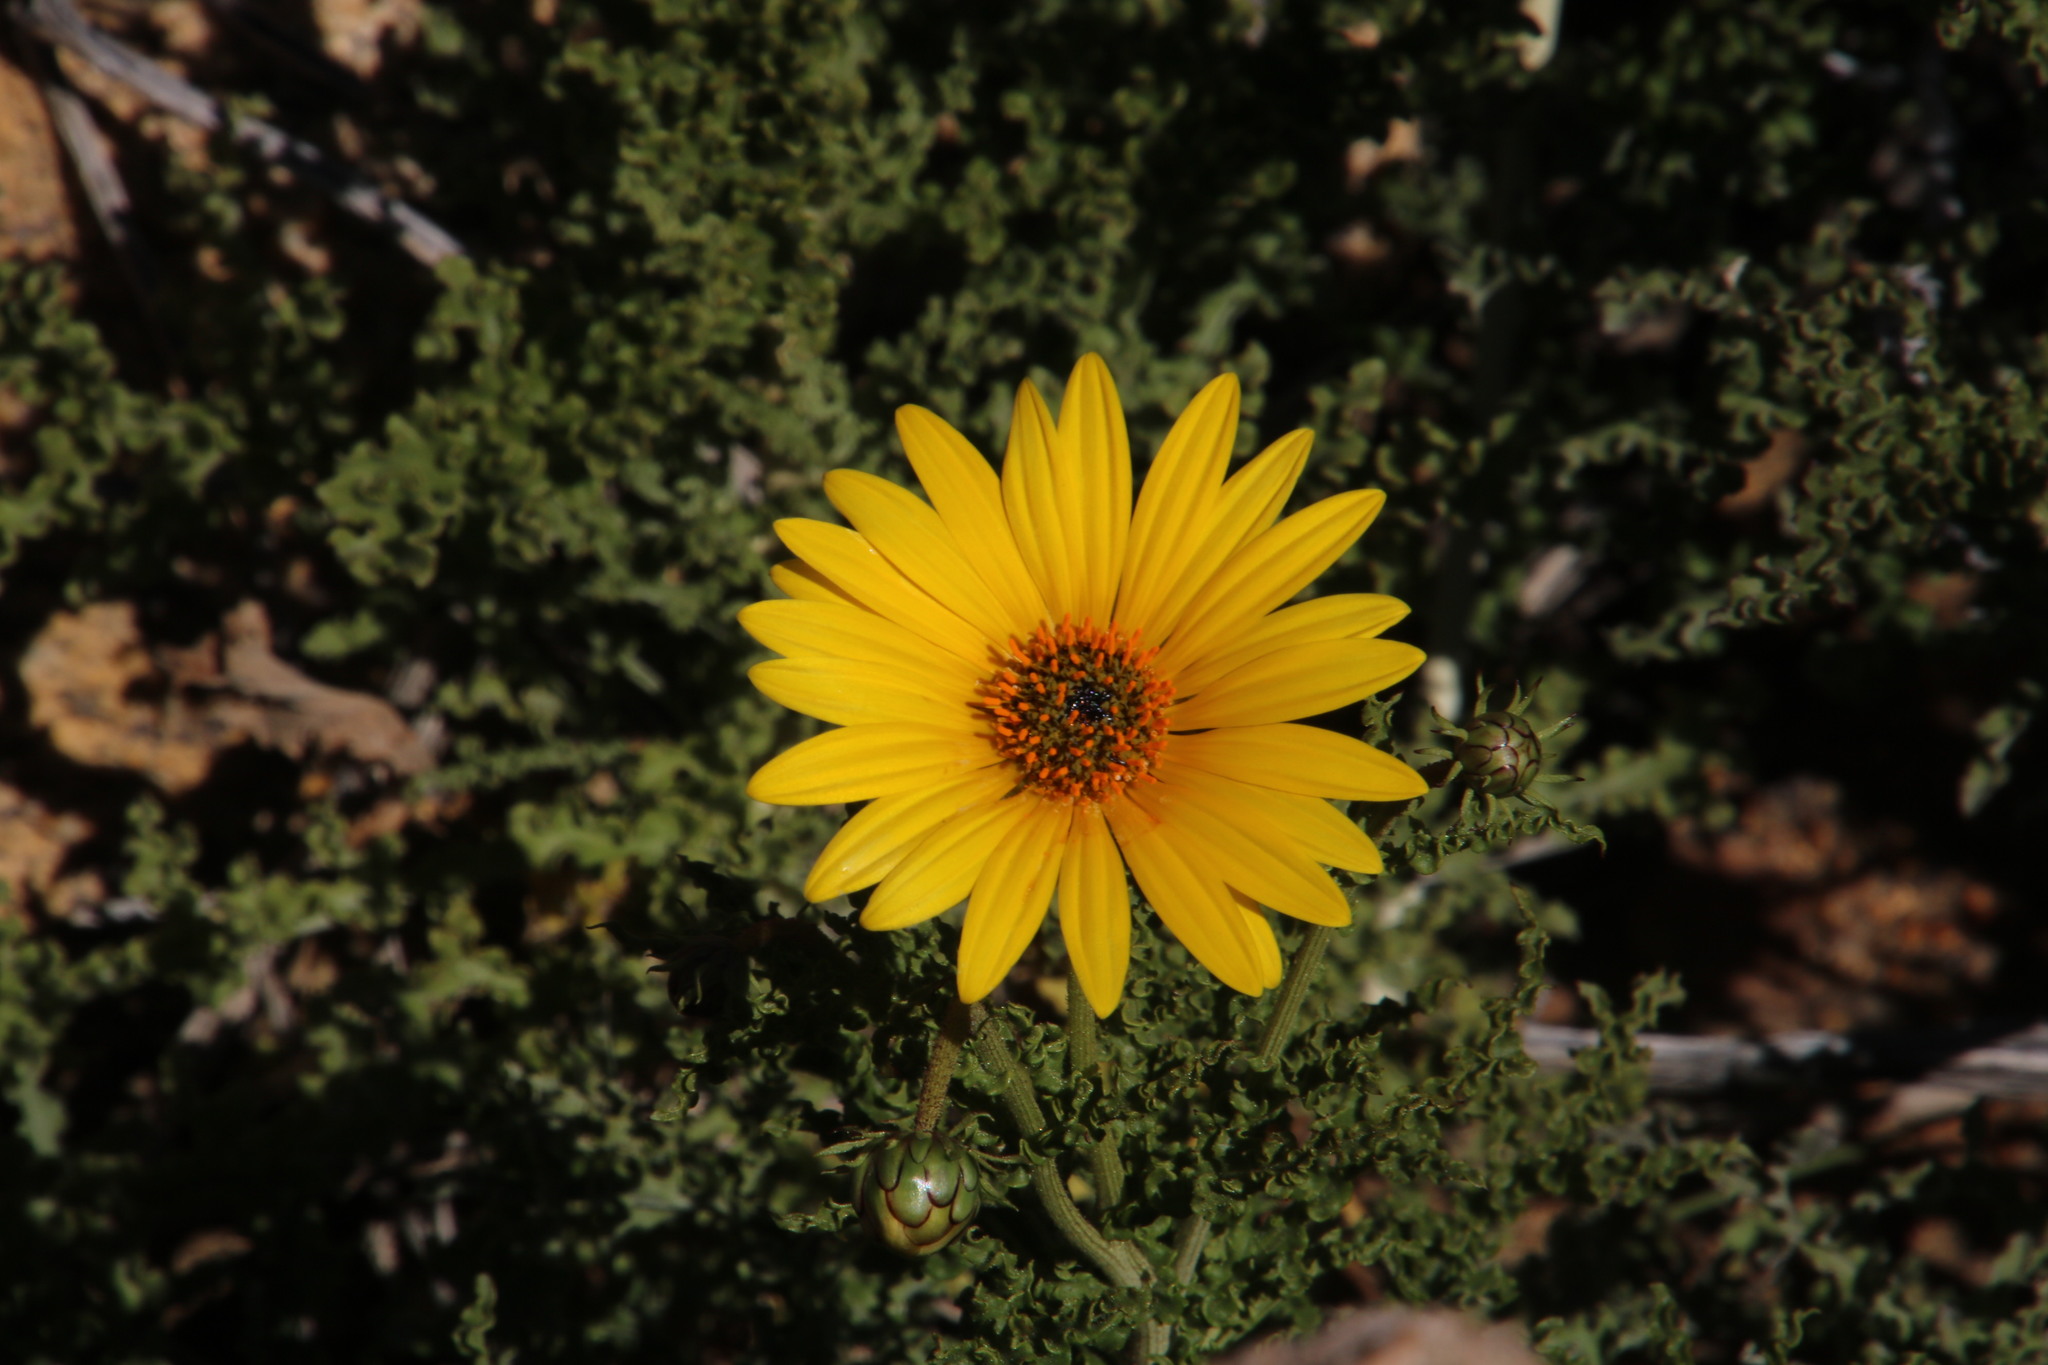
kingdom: Plantae
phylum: Tracheophyta
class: Magnoliopsida
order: Asterales
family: Asteraceae
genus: Arctotis
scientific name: Arctotis laciniata
